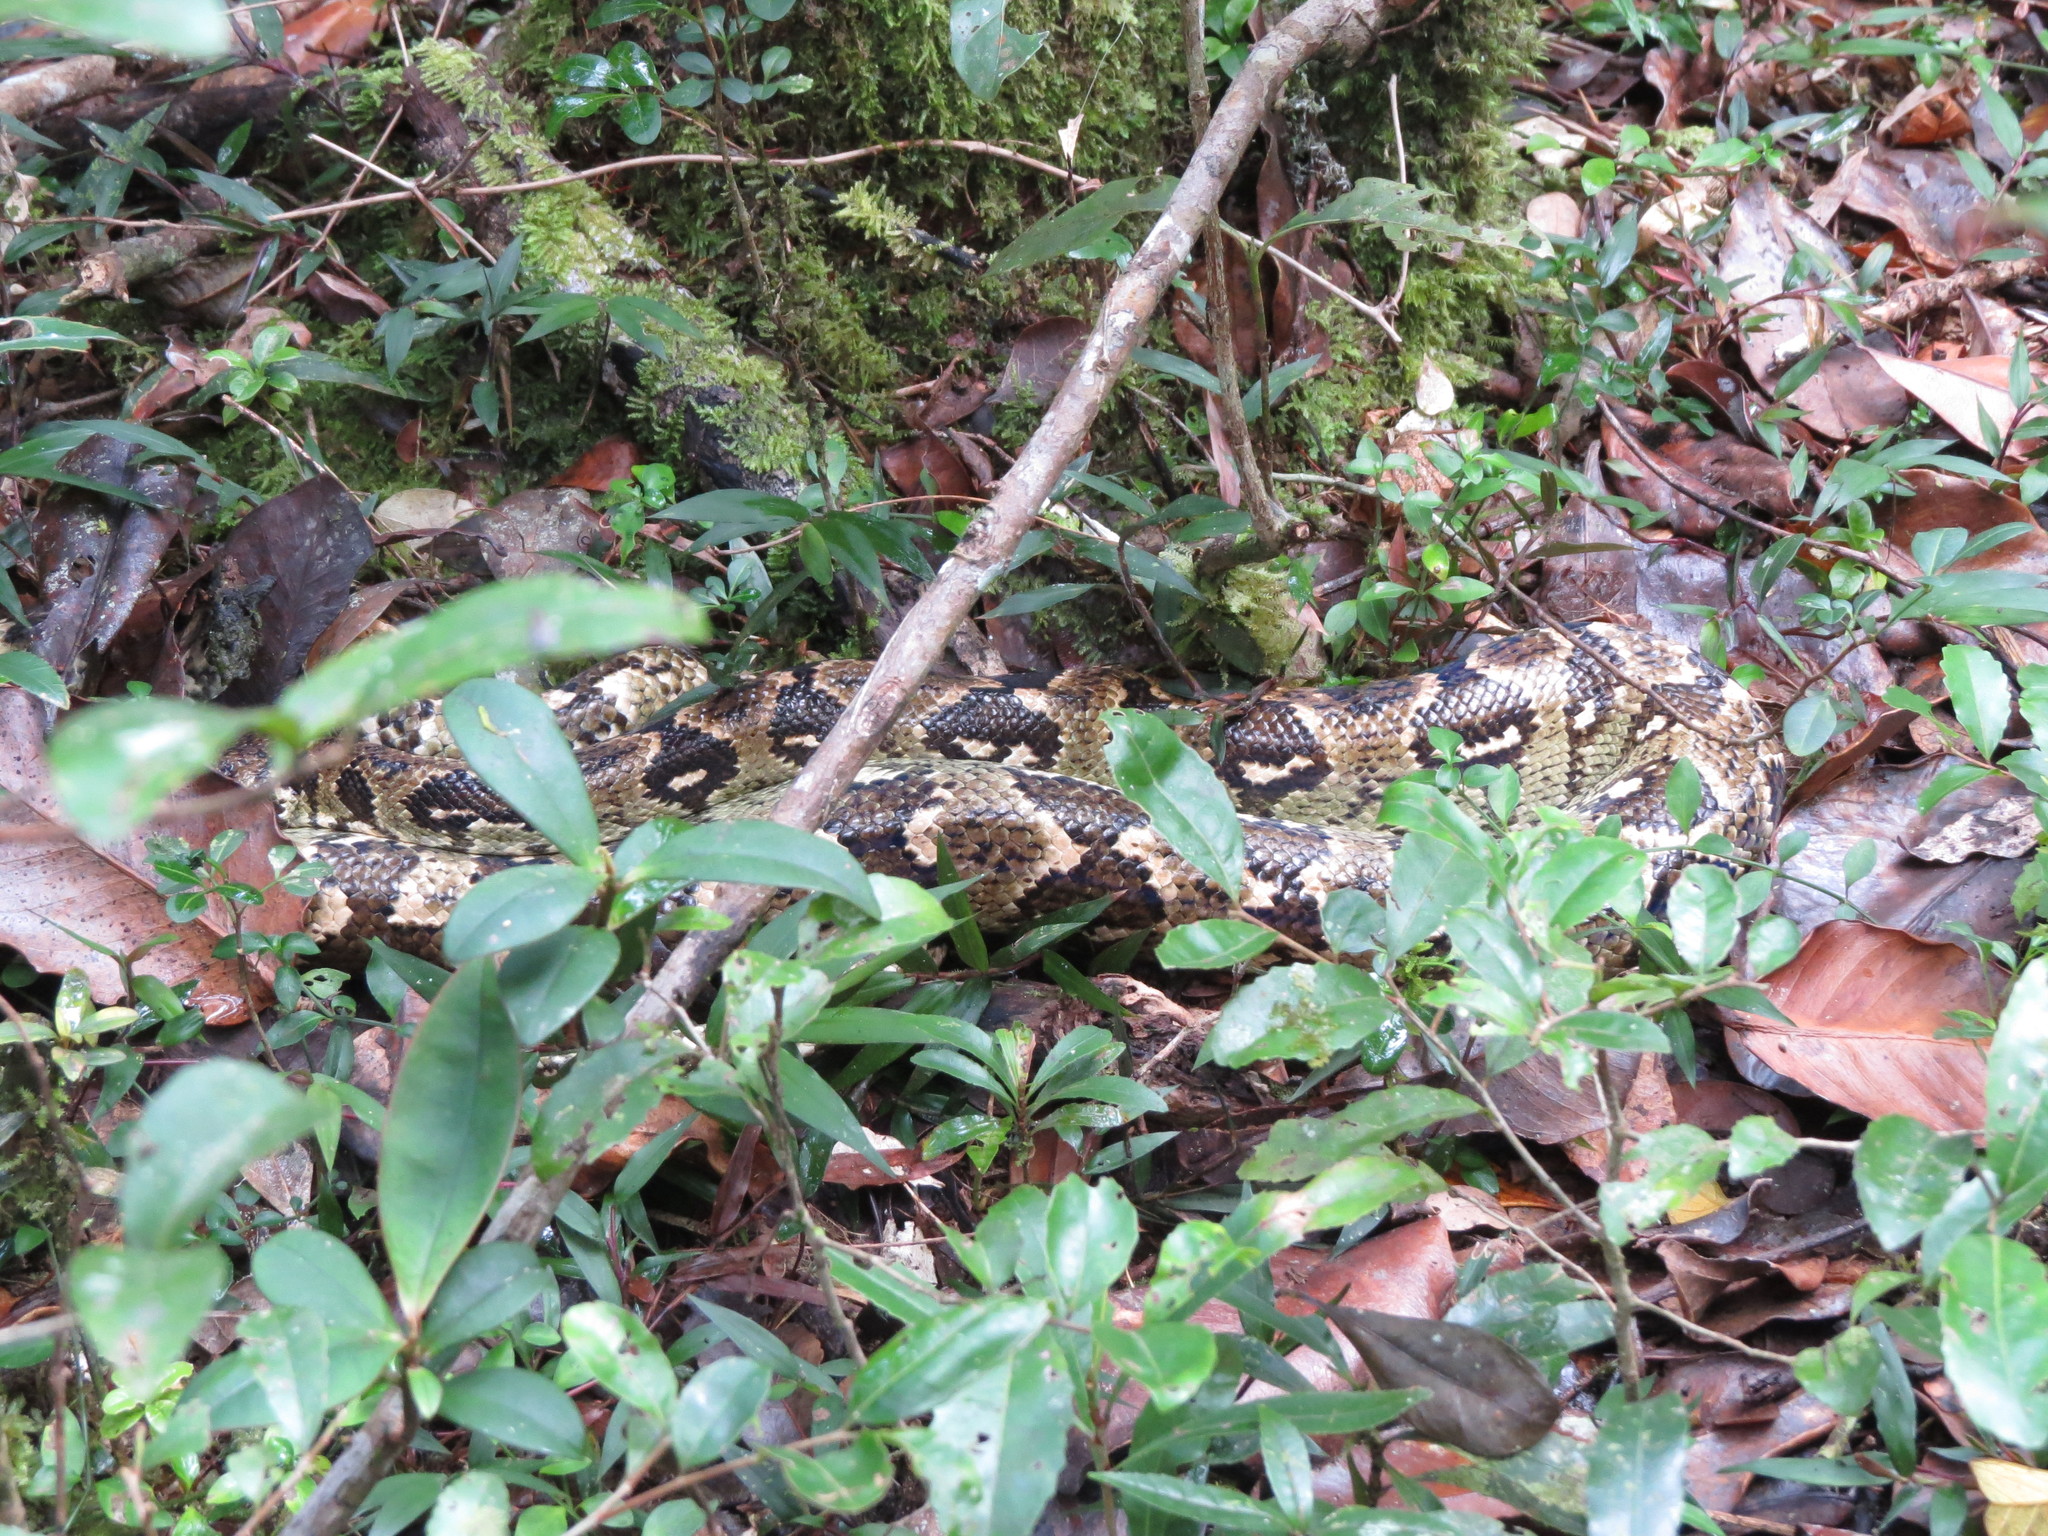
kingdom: Animalia
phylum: Chordata
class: Squamata
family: Boidae
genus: Sanzinia
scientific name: Sanzinia madagascariensis
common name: Madagascar tree boa
